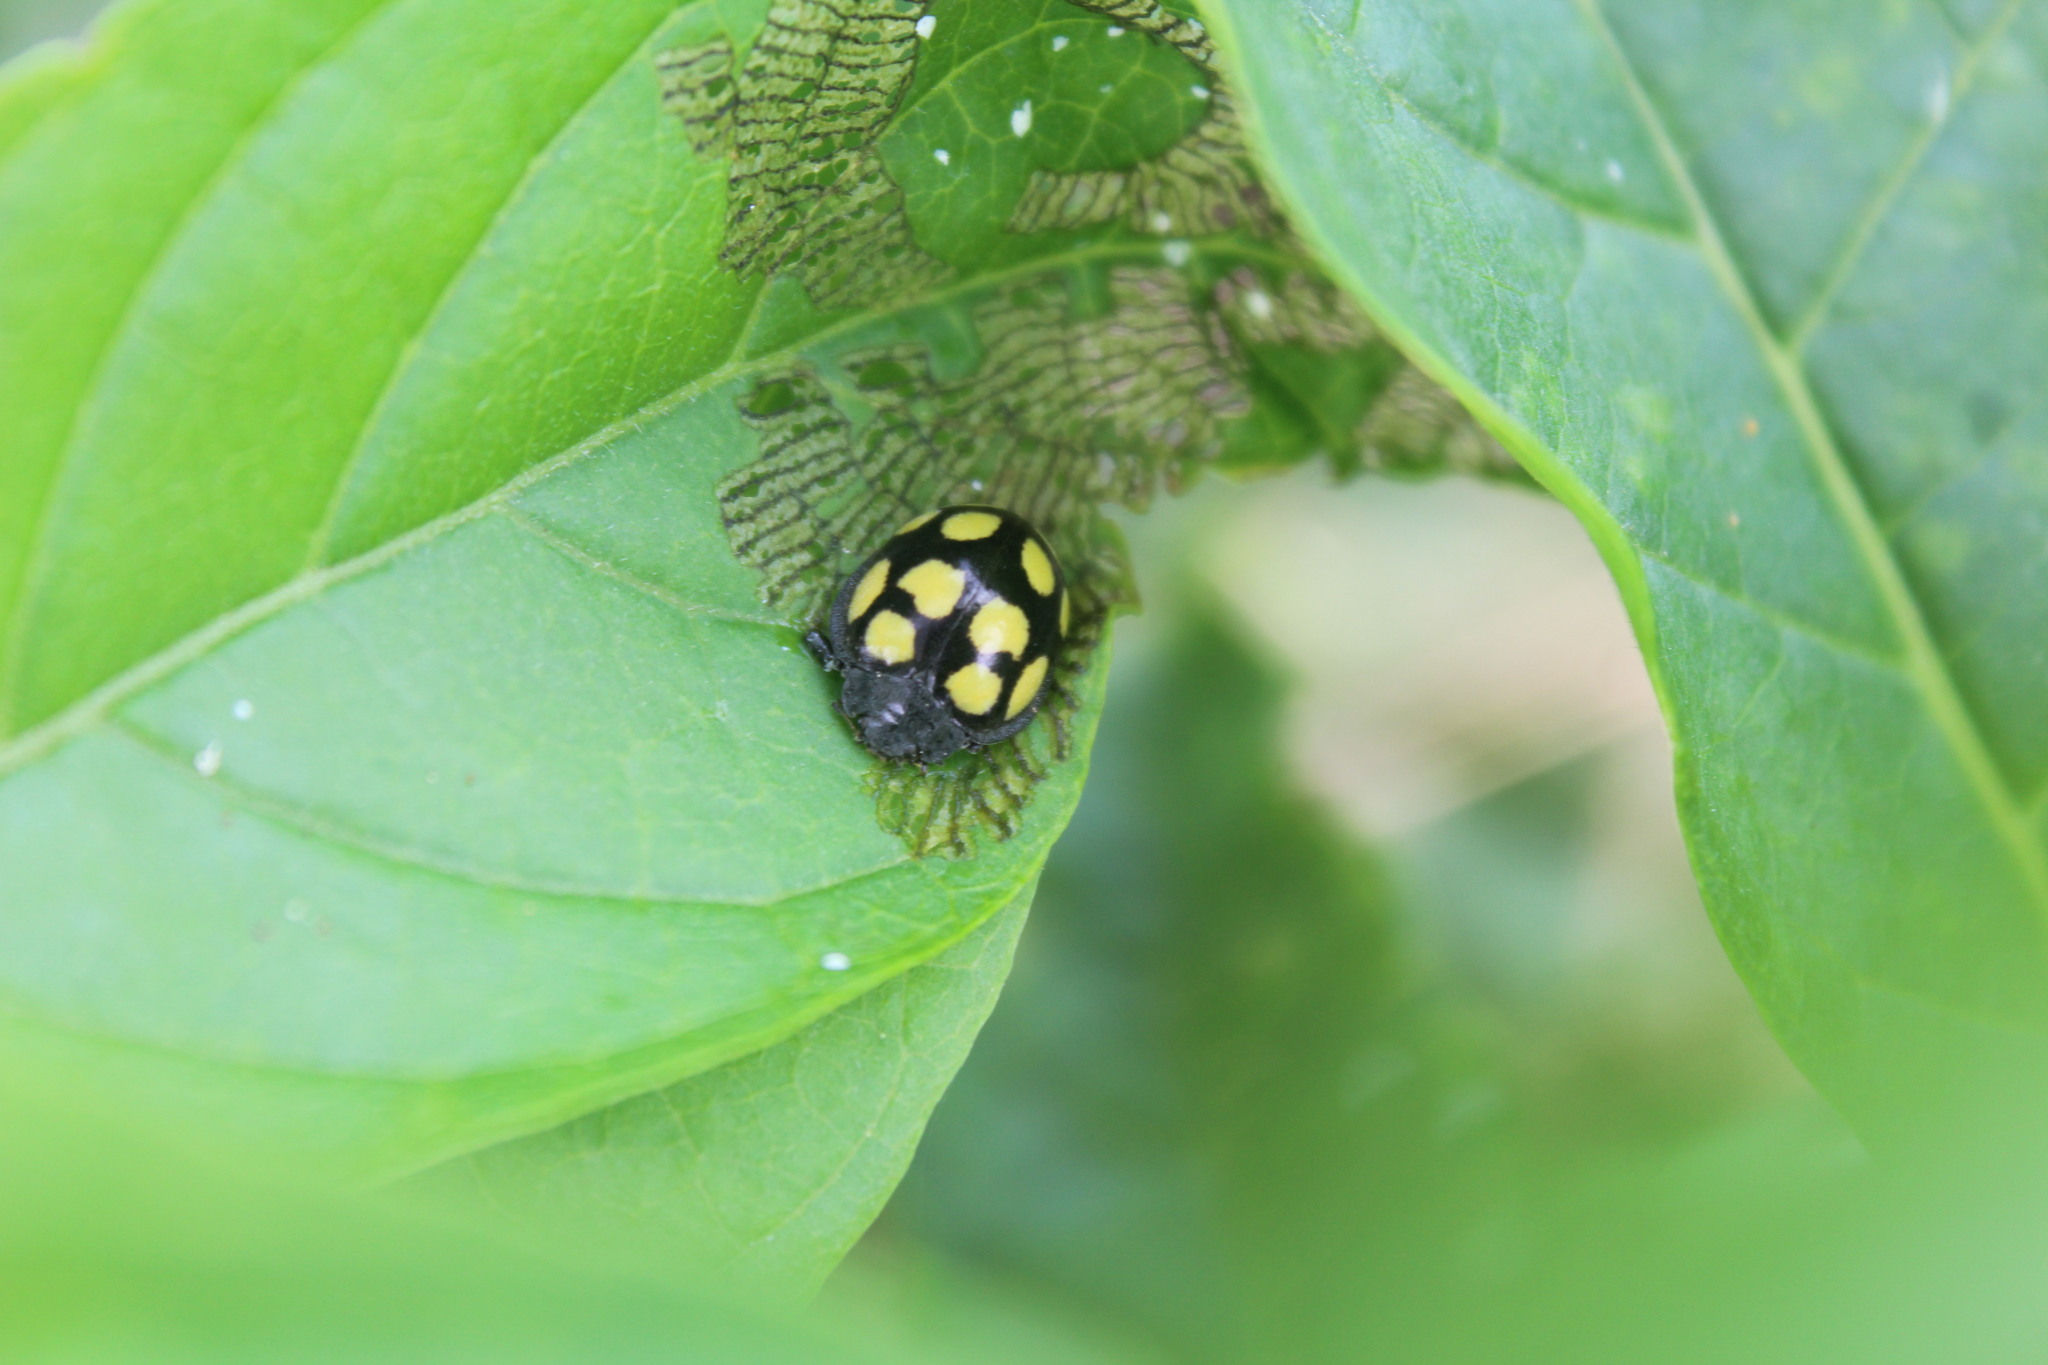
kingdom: Animalia
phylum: Arthropoda
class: Insecta
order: Coleoptera
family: Coccinellidae
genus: Epilachna
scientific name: Epilachna
